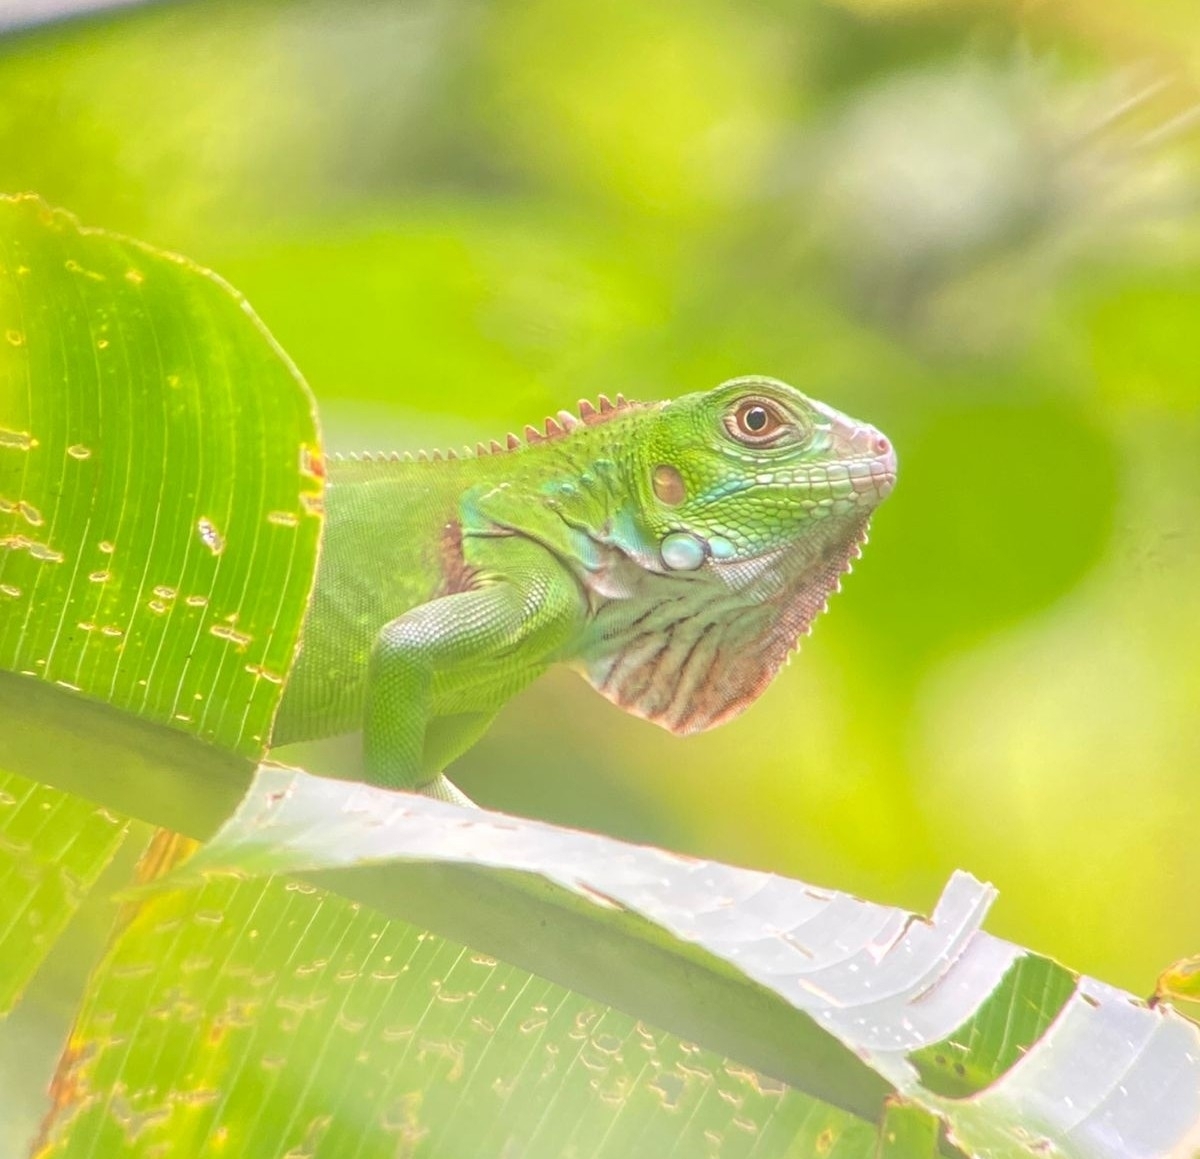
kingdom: Animalia
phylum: Chordata
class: Squamata
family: Iguanidae
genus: Iguana
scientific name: Iguana iguana
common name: Green iguana
